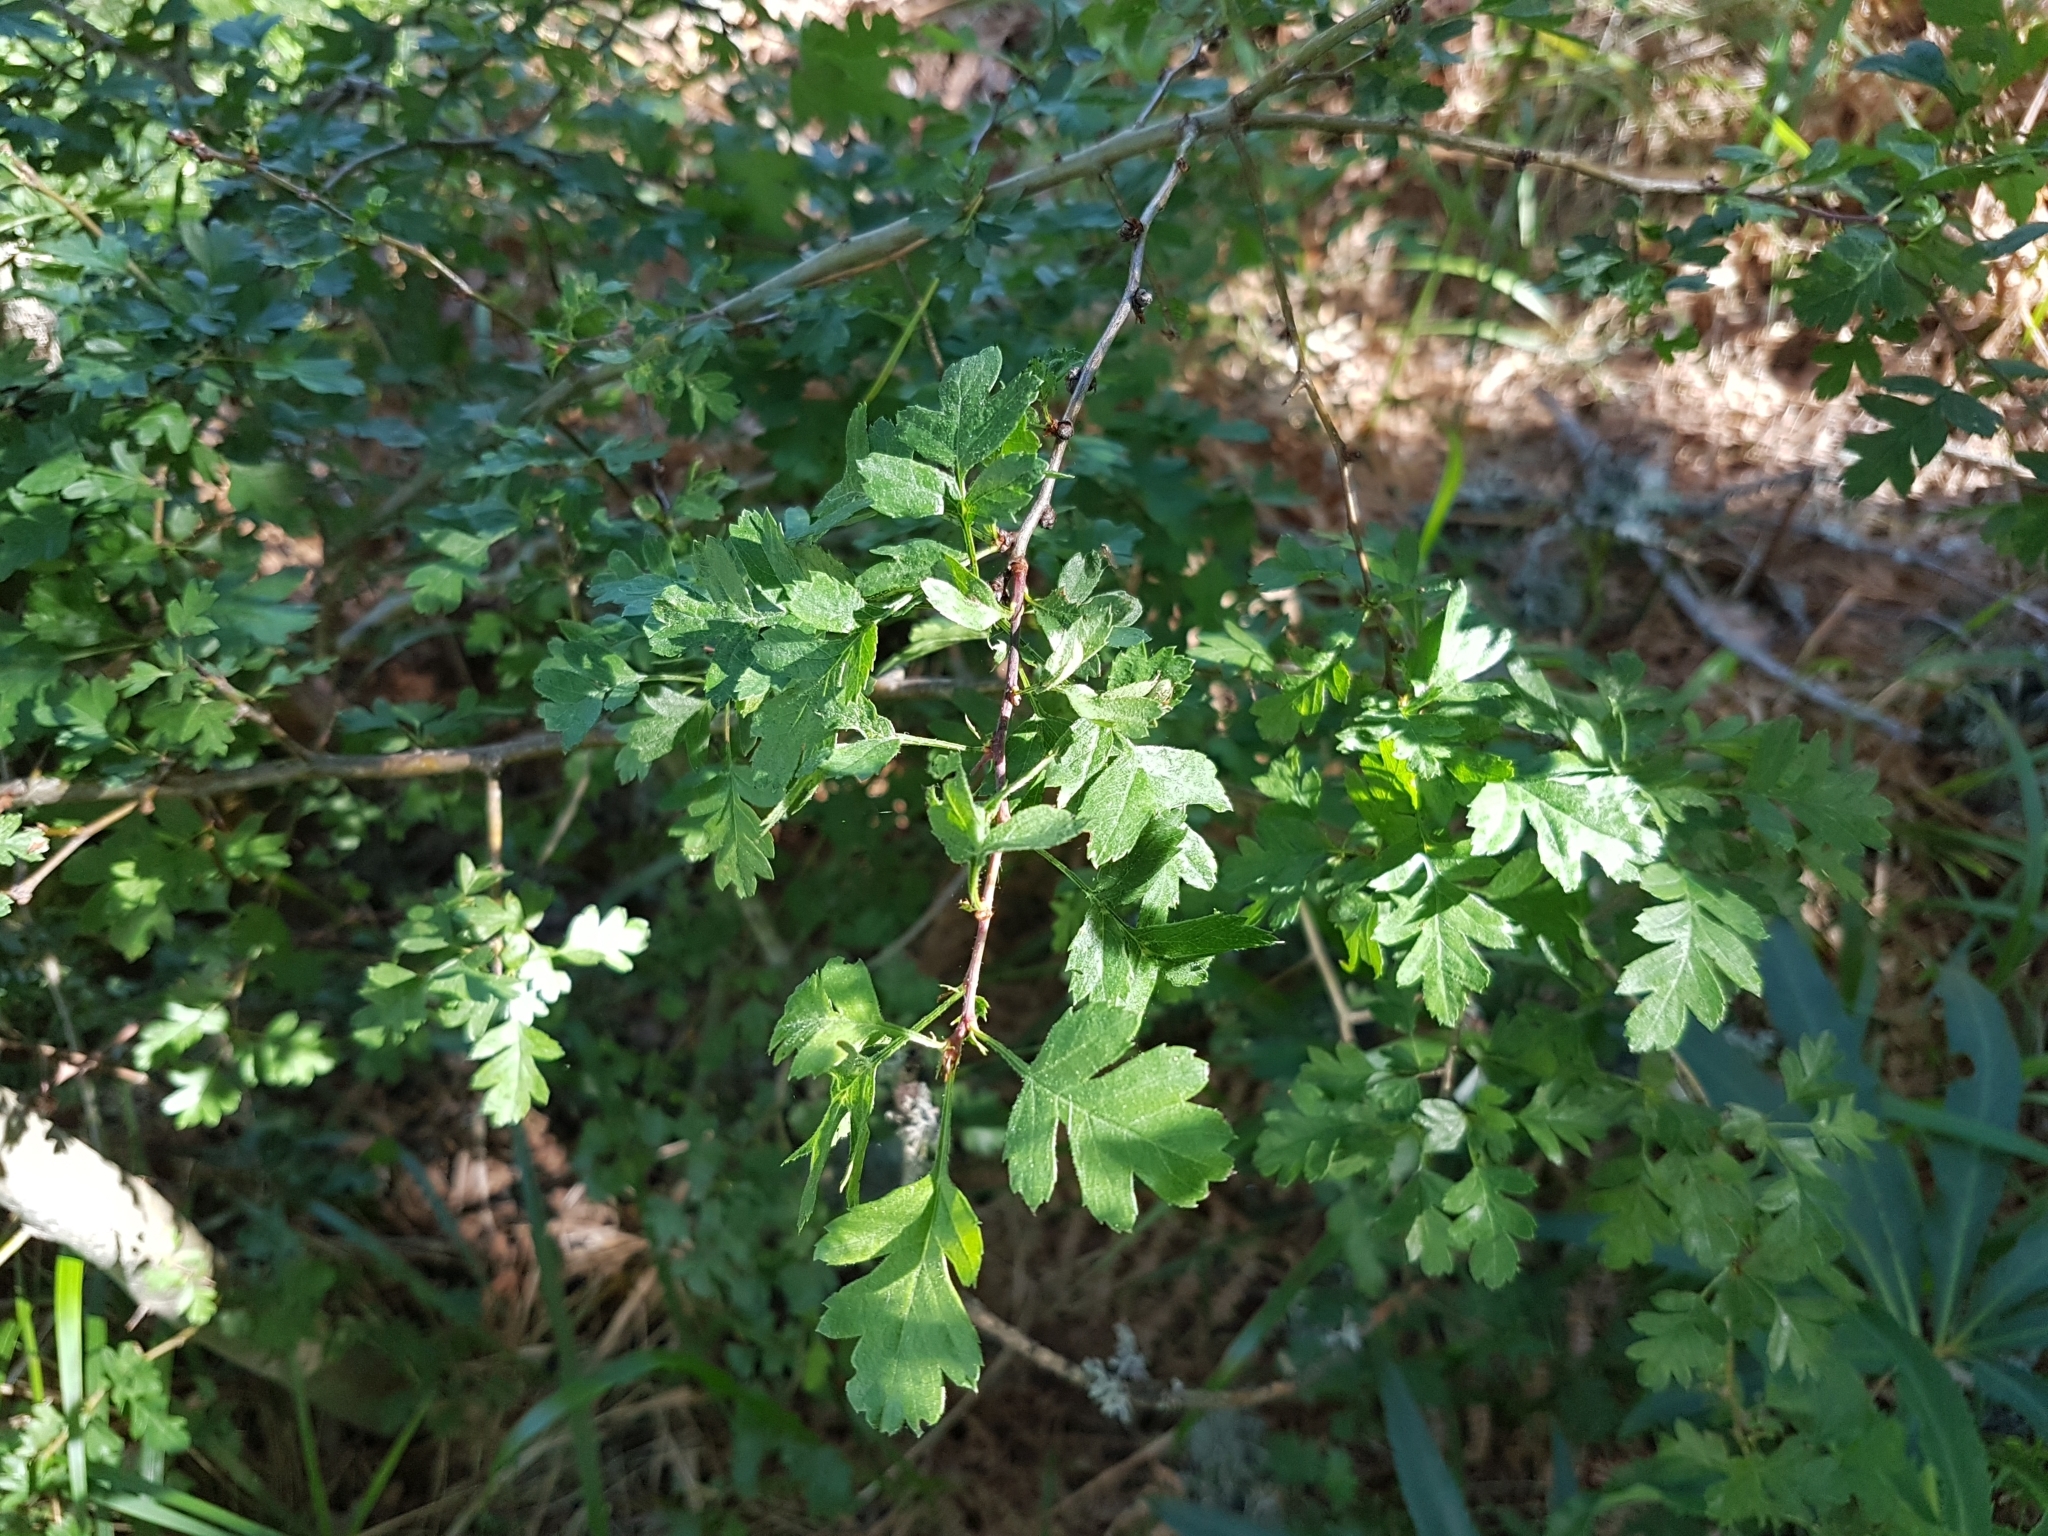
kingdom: Plantae
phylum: Tracheophyta
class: Magnoliopsida
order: Rosales
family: Rosaceae
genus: Crataegus
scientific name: Crataegus monogyna
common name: Hawthorn
